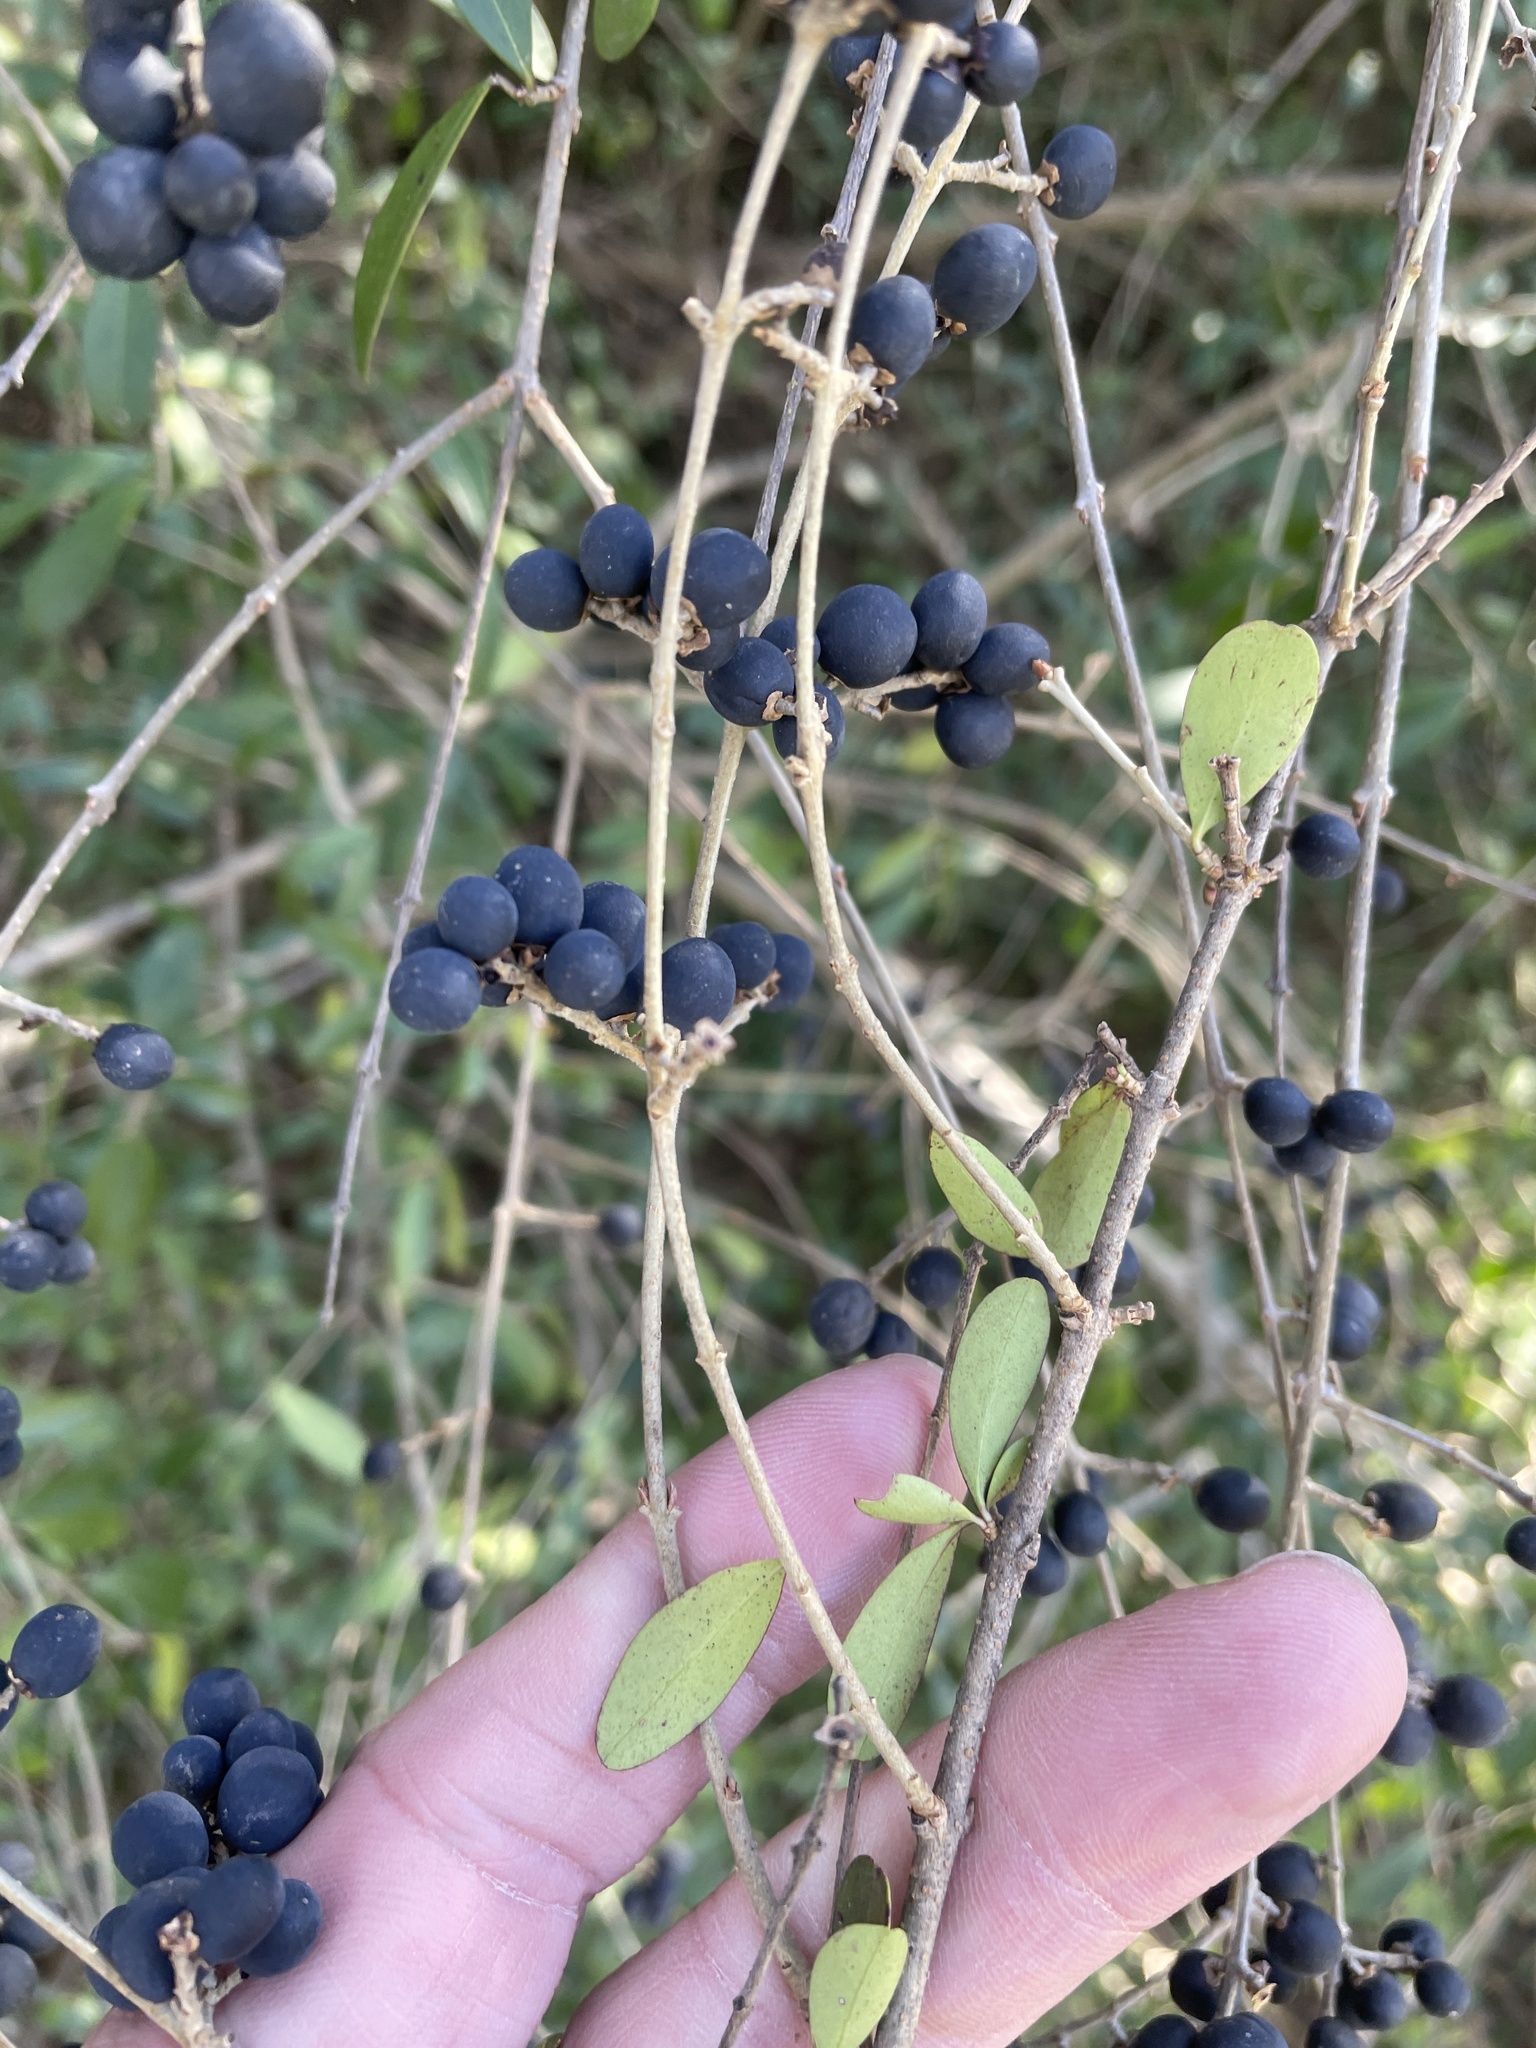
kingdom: Plantae
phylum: Tracheophyta
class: Magnoliopsida
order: Lamiales
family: Oleaceae
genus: Ligustrum
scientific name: Ligustrum quihoui
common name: Waxyleaf privet
